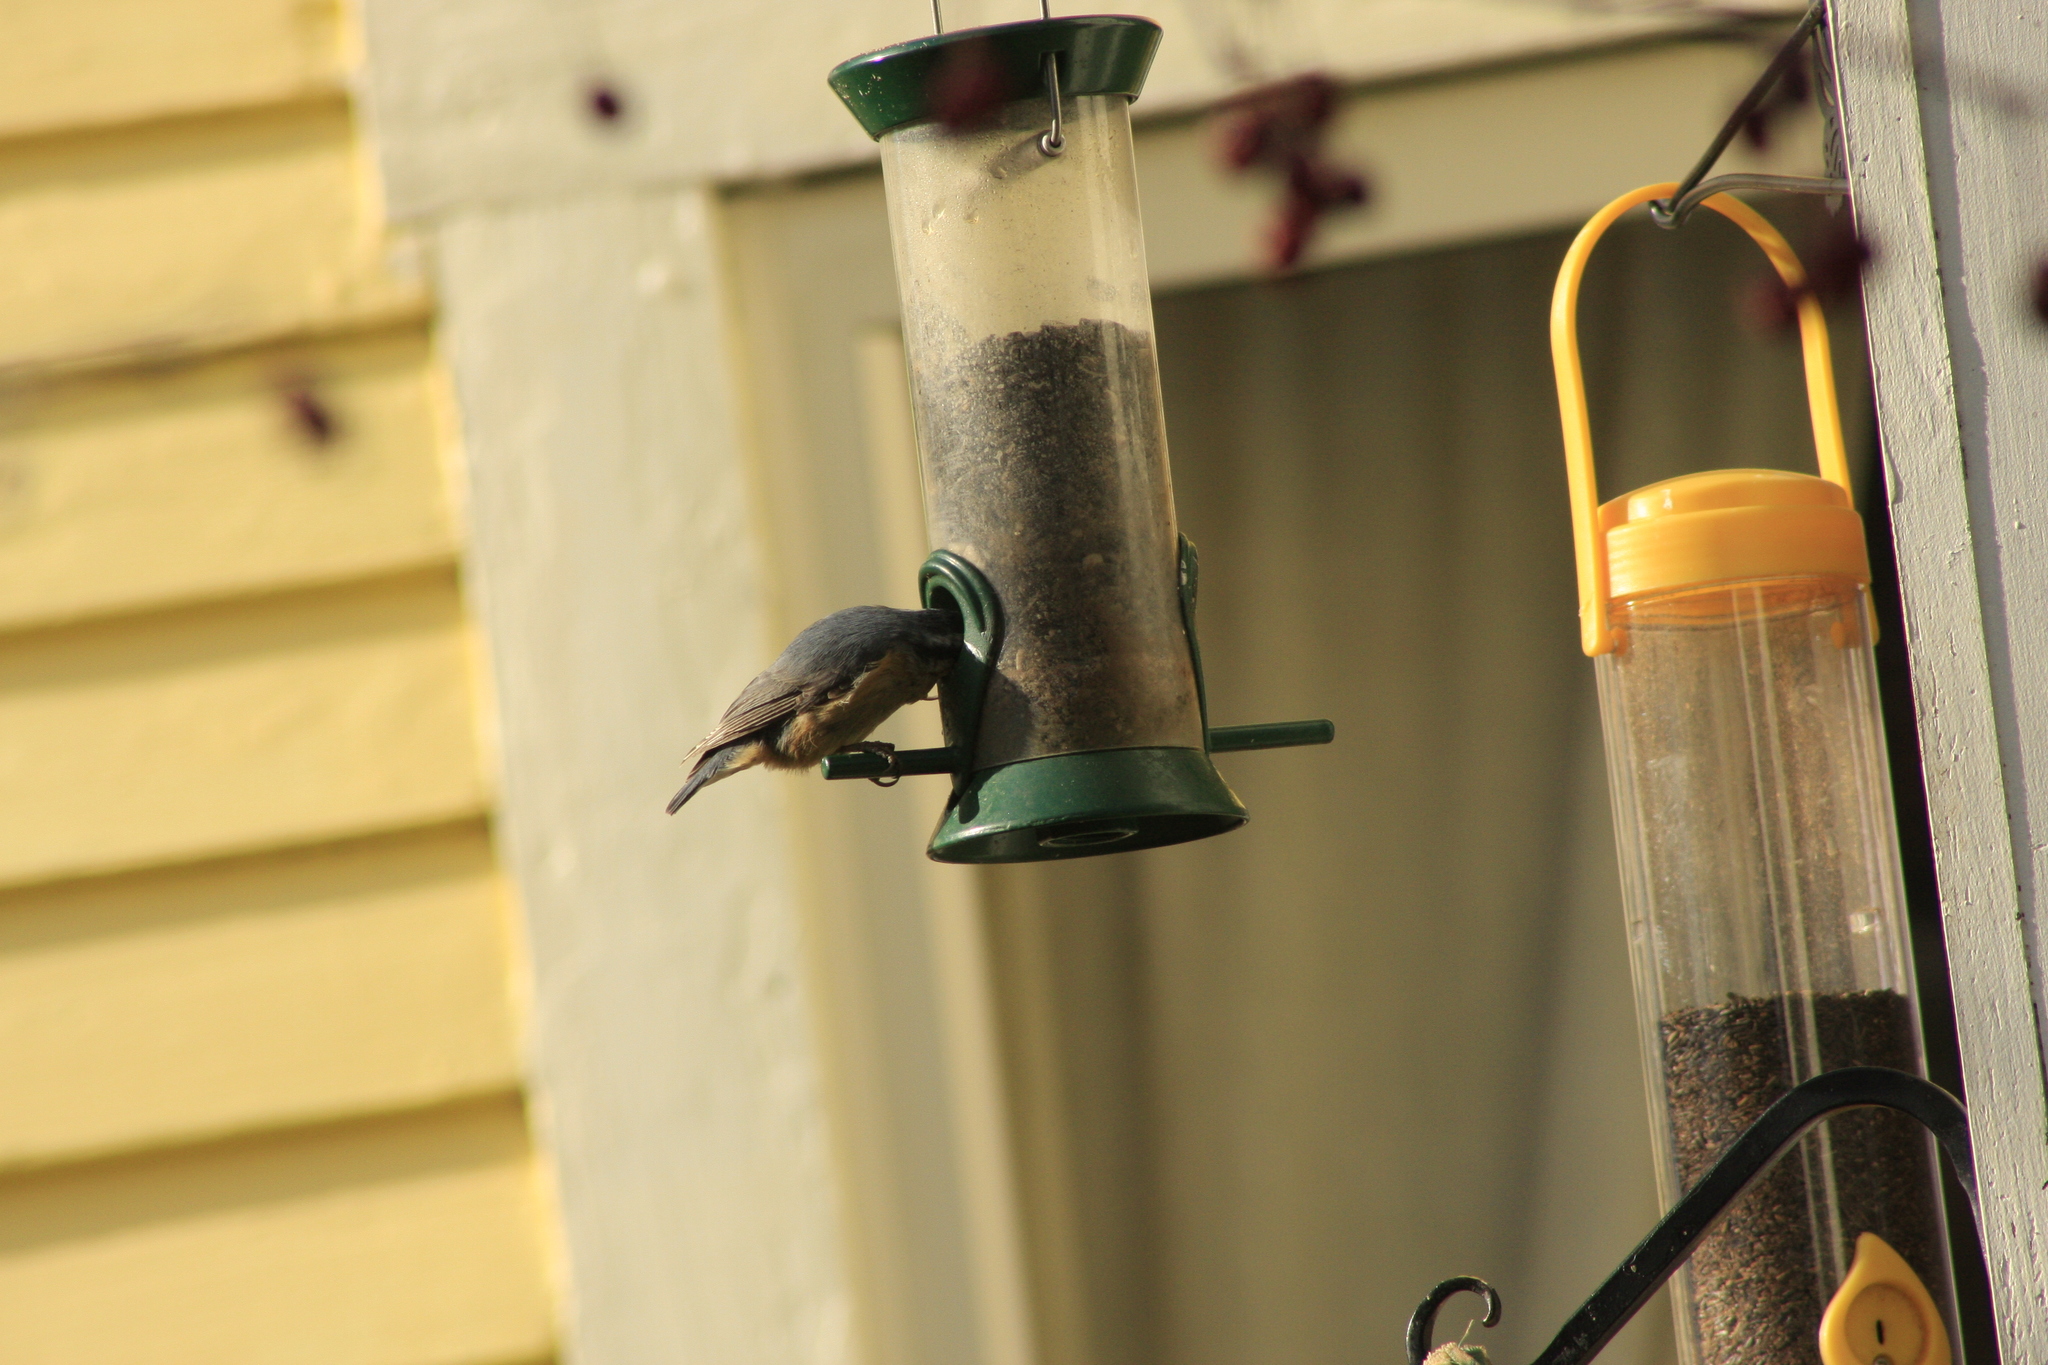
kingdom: Animalia
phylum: Chordata
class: Aves
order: Passeriformes
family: Sittidae
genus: Sitta
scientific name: Sitta canadensis
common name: Red-breasted nuthatch
